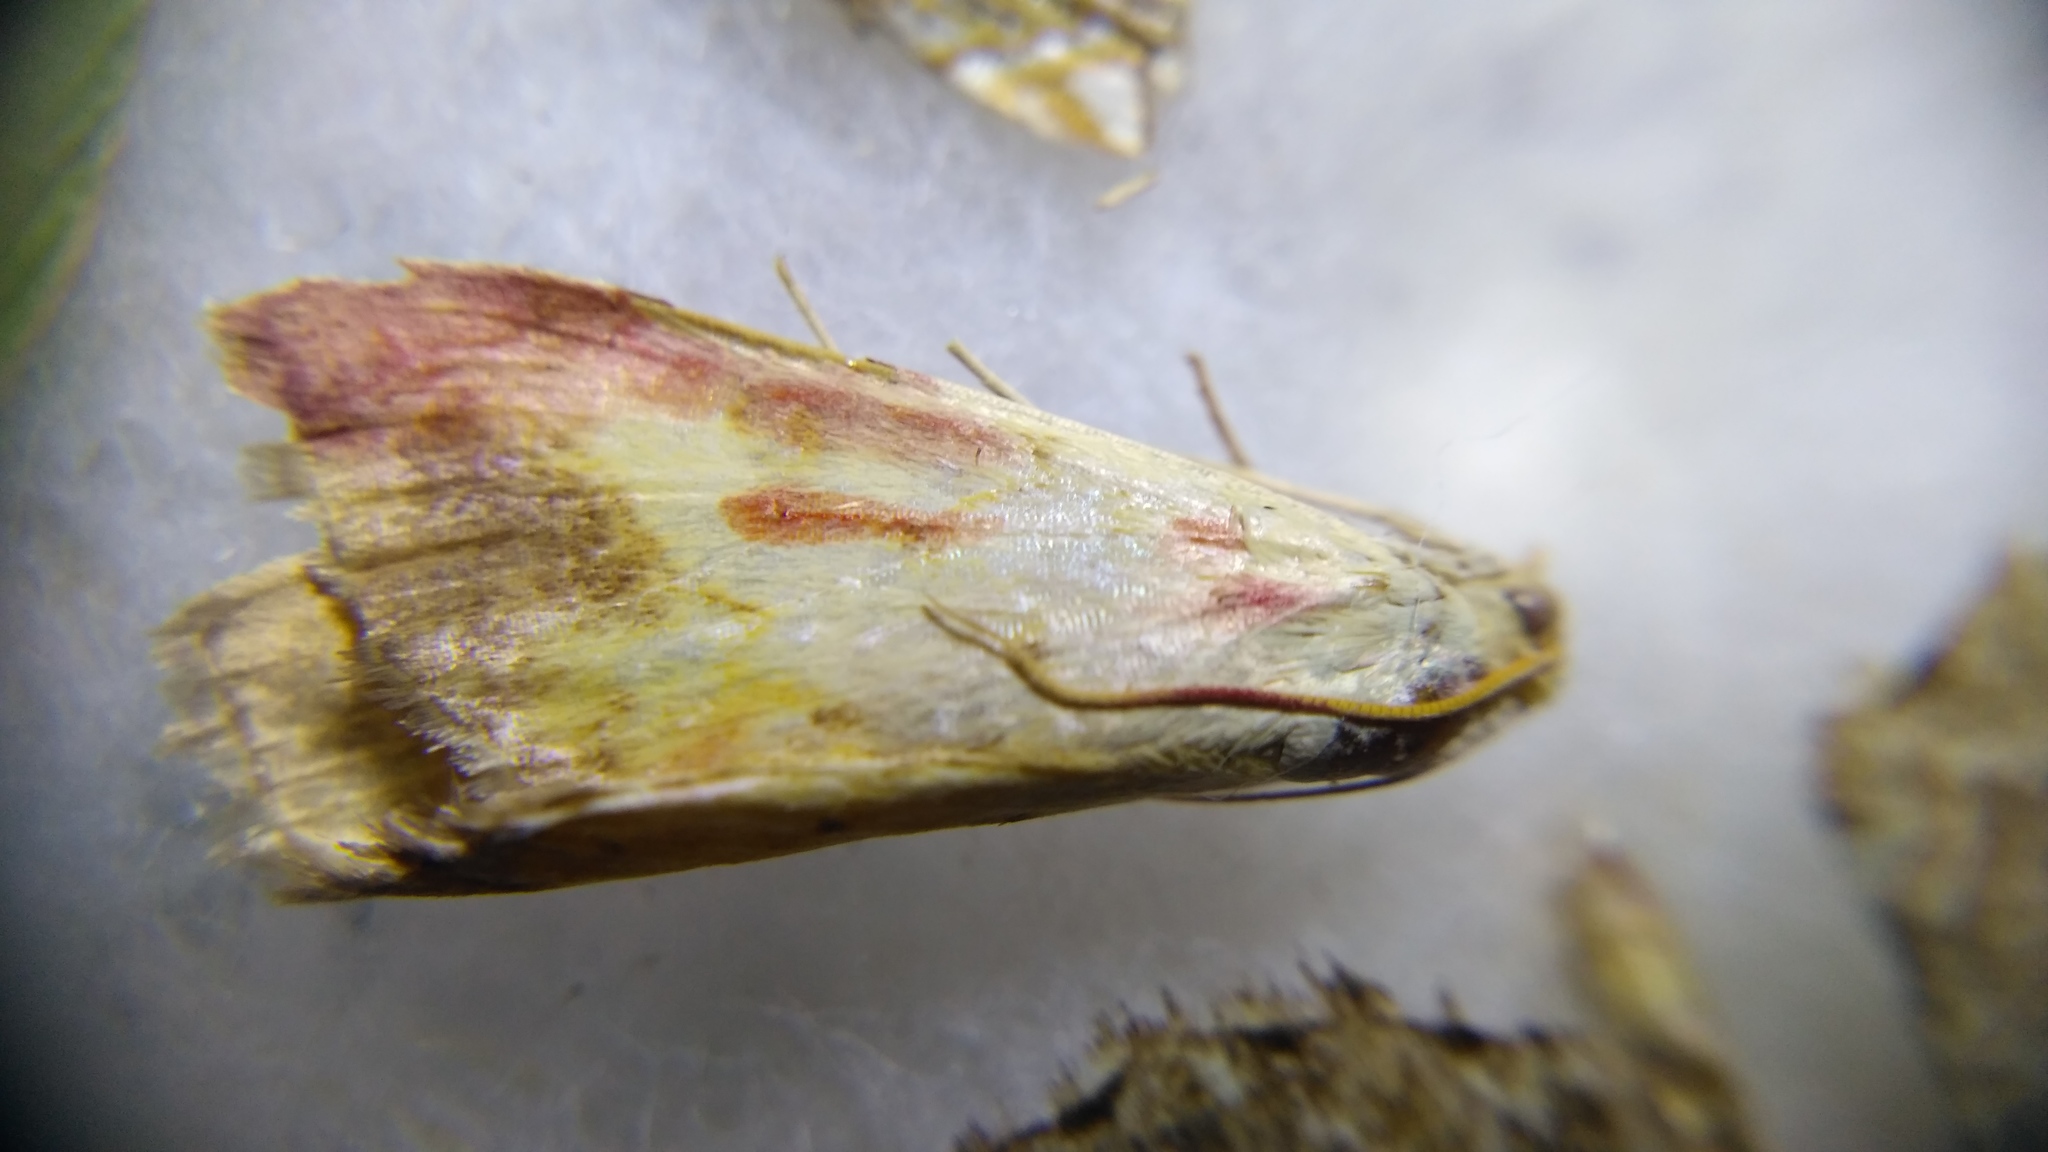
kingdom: Animalia
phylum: Arthropoda
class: Insecta
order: Lepidoptera
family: Crambidae
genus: Evergestis
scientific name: Evergestis extimalis
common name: Marbled yellow pearl
